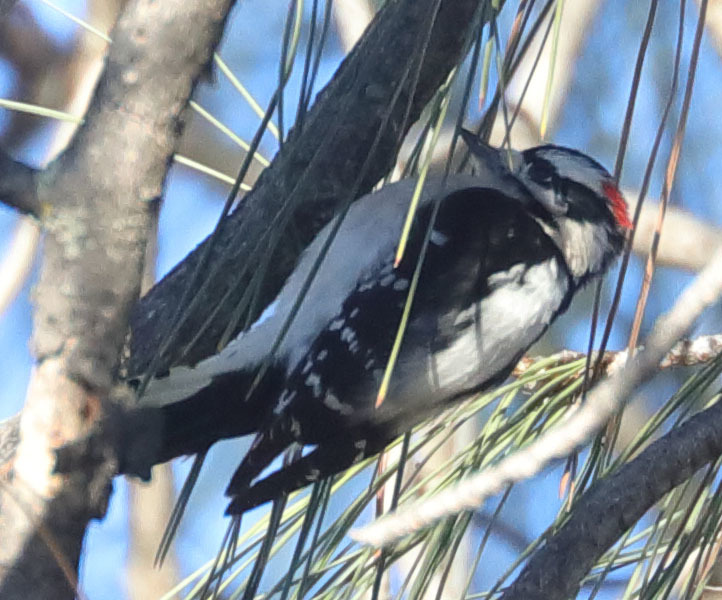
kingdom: Animalia
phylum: Chordata
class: Aves
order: Piciformes
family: Picidae
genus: Dryobates
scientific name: Dryobates pubescens
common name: Downy woodpecker
